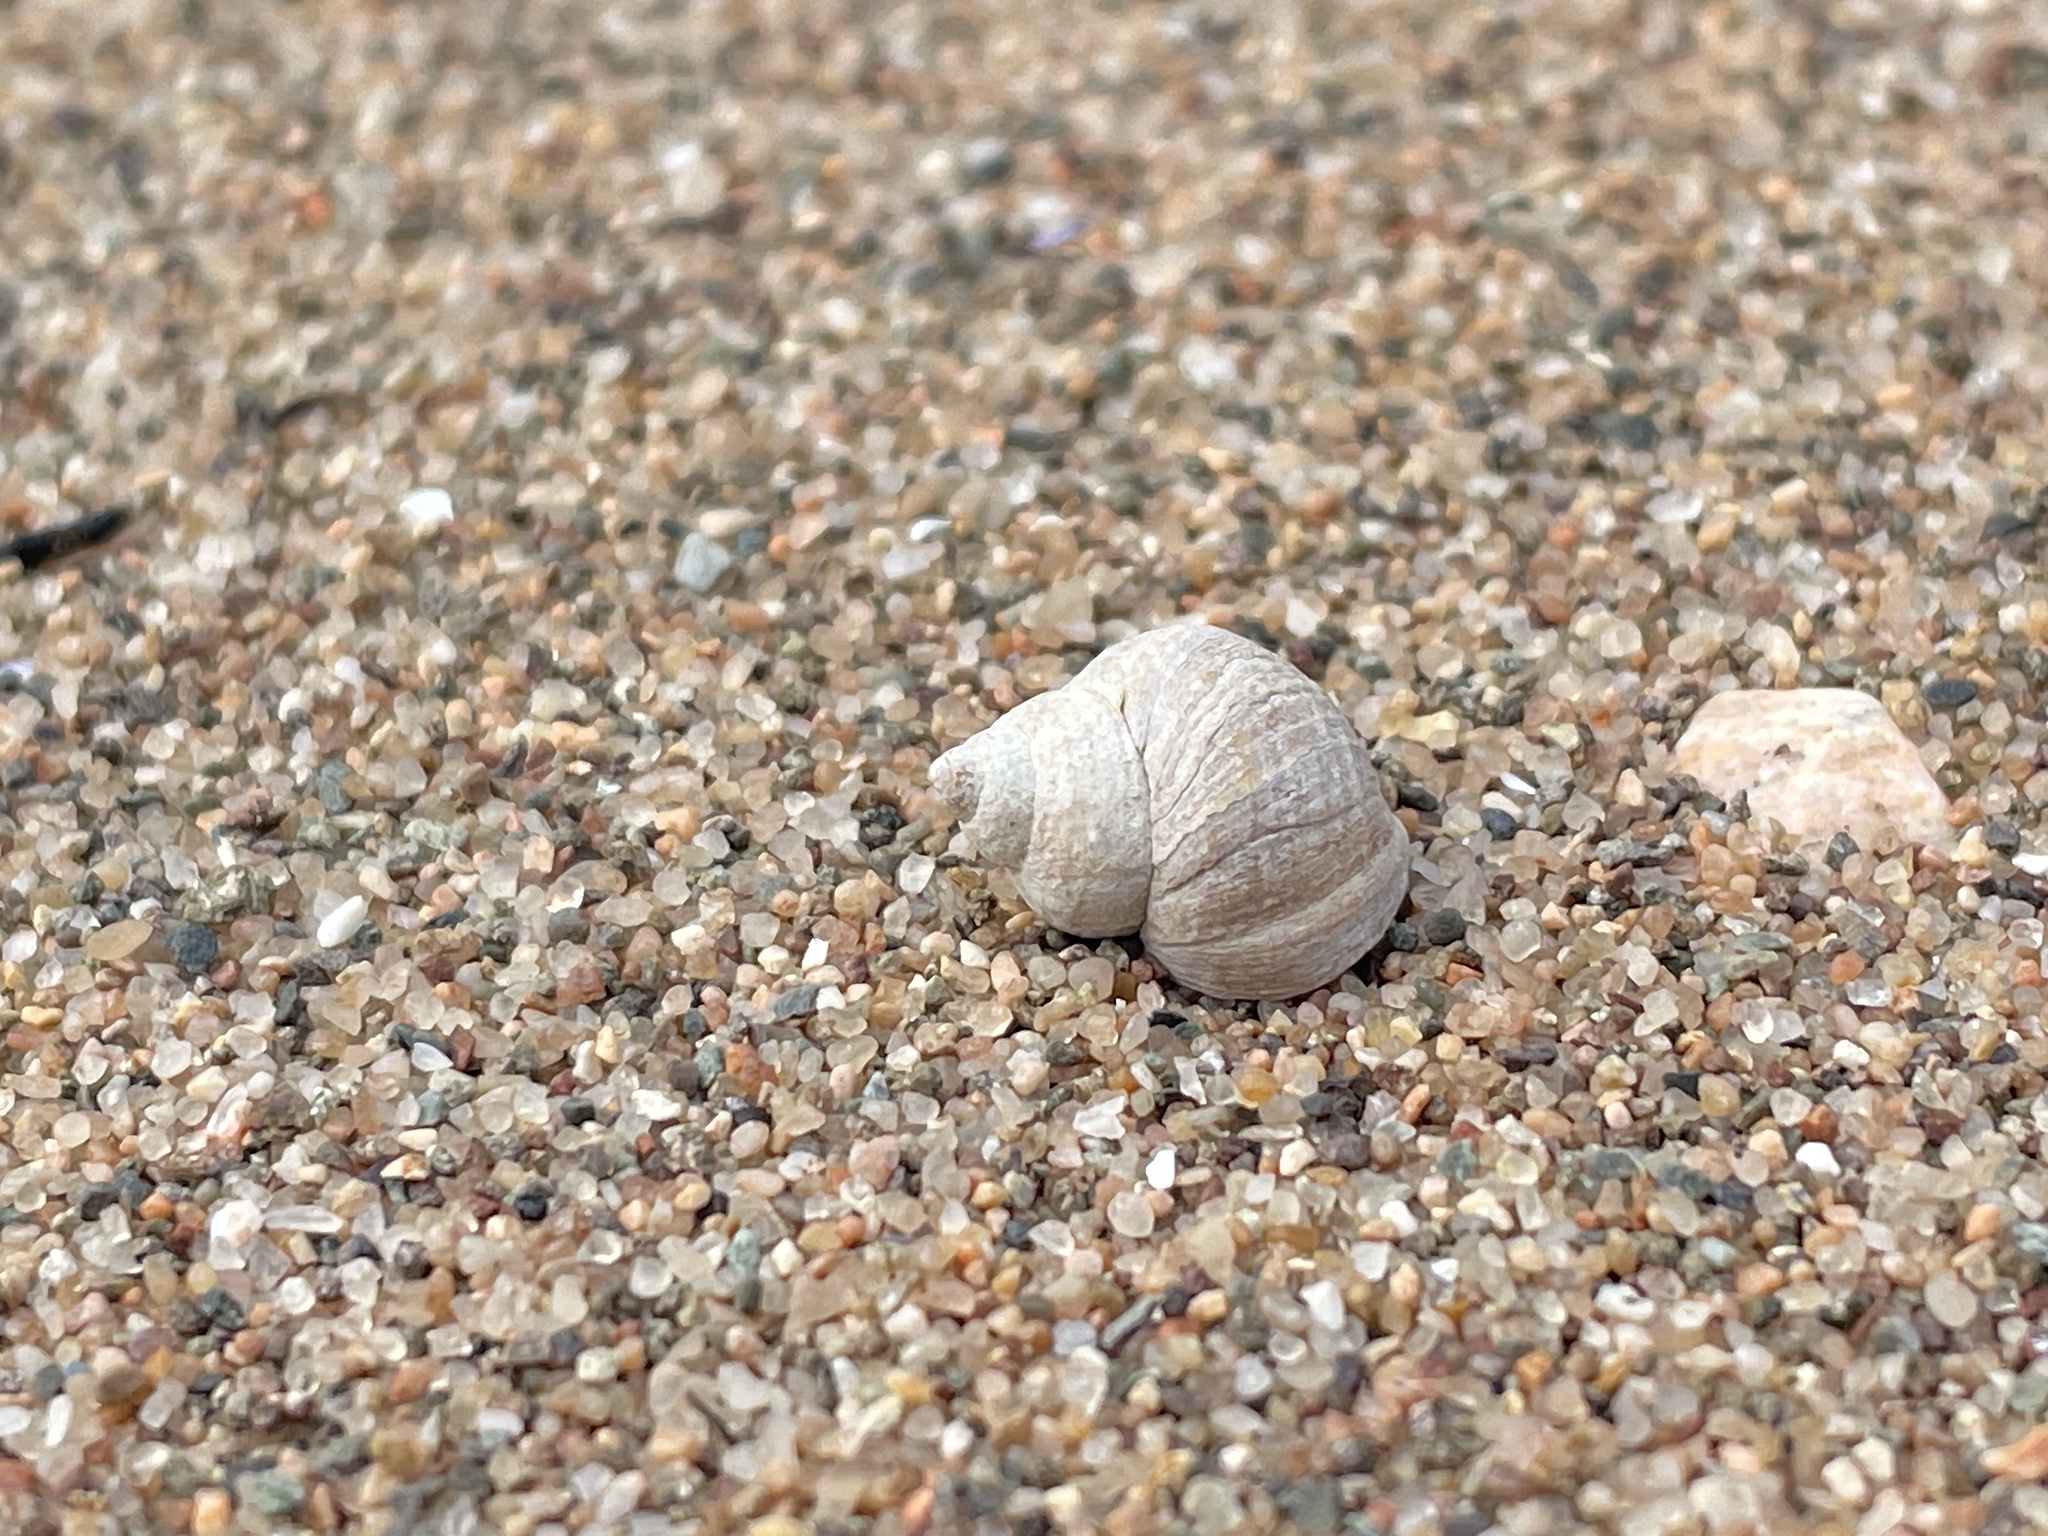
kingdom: Animalia
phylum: Mollusca
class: Gastropoda
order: Littorinimorpha
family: Littorinidae
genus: Littorina
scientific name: Littorina saxatilis
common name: Black-lined periwinkle
